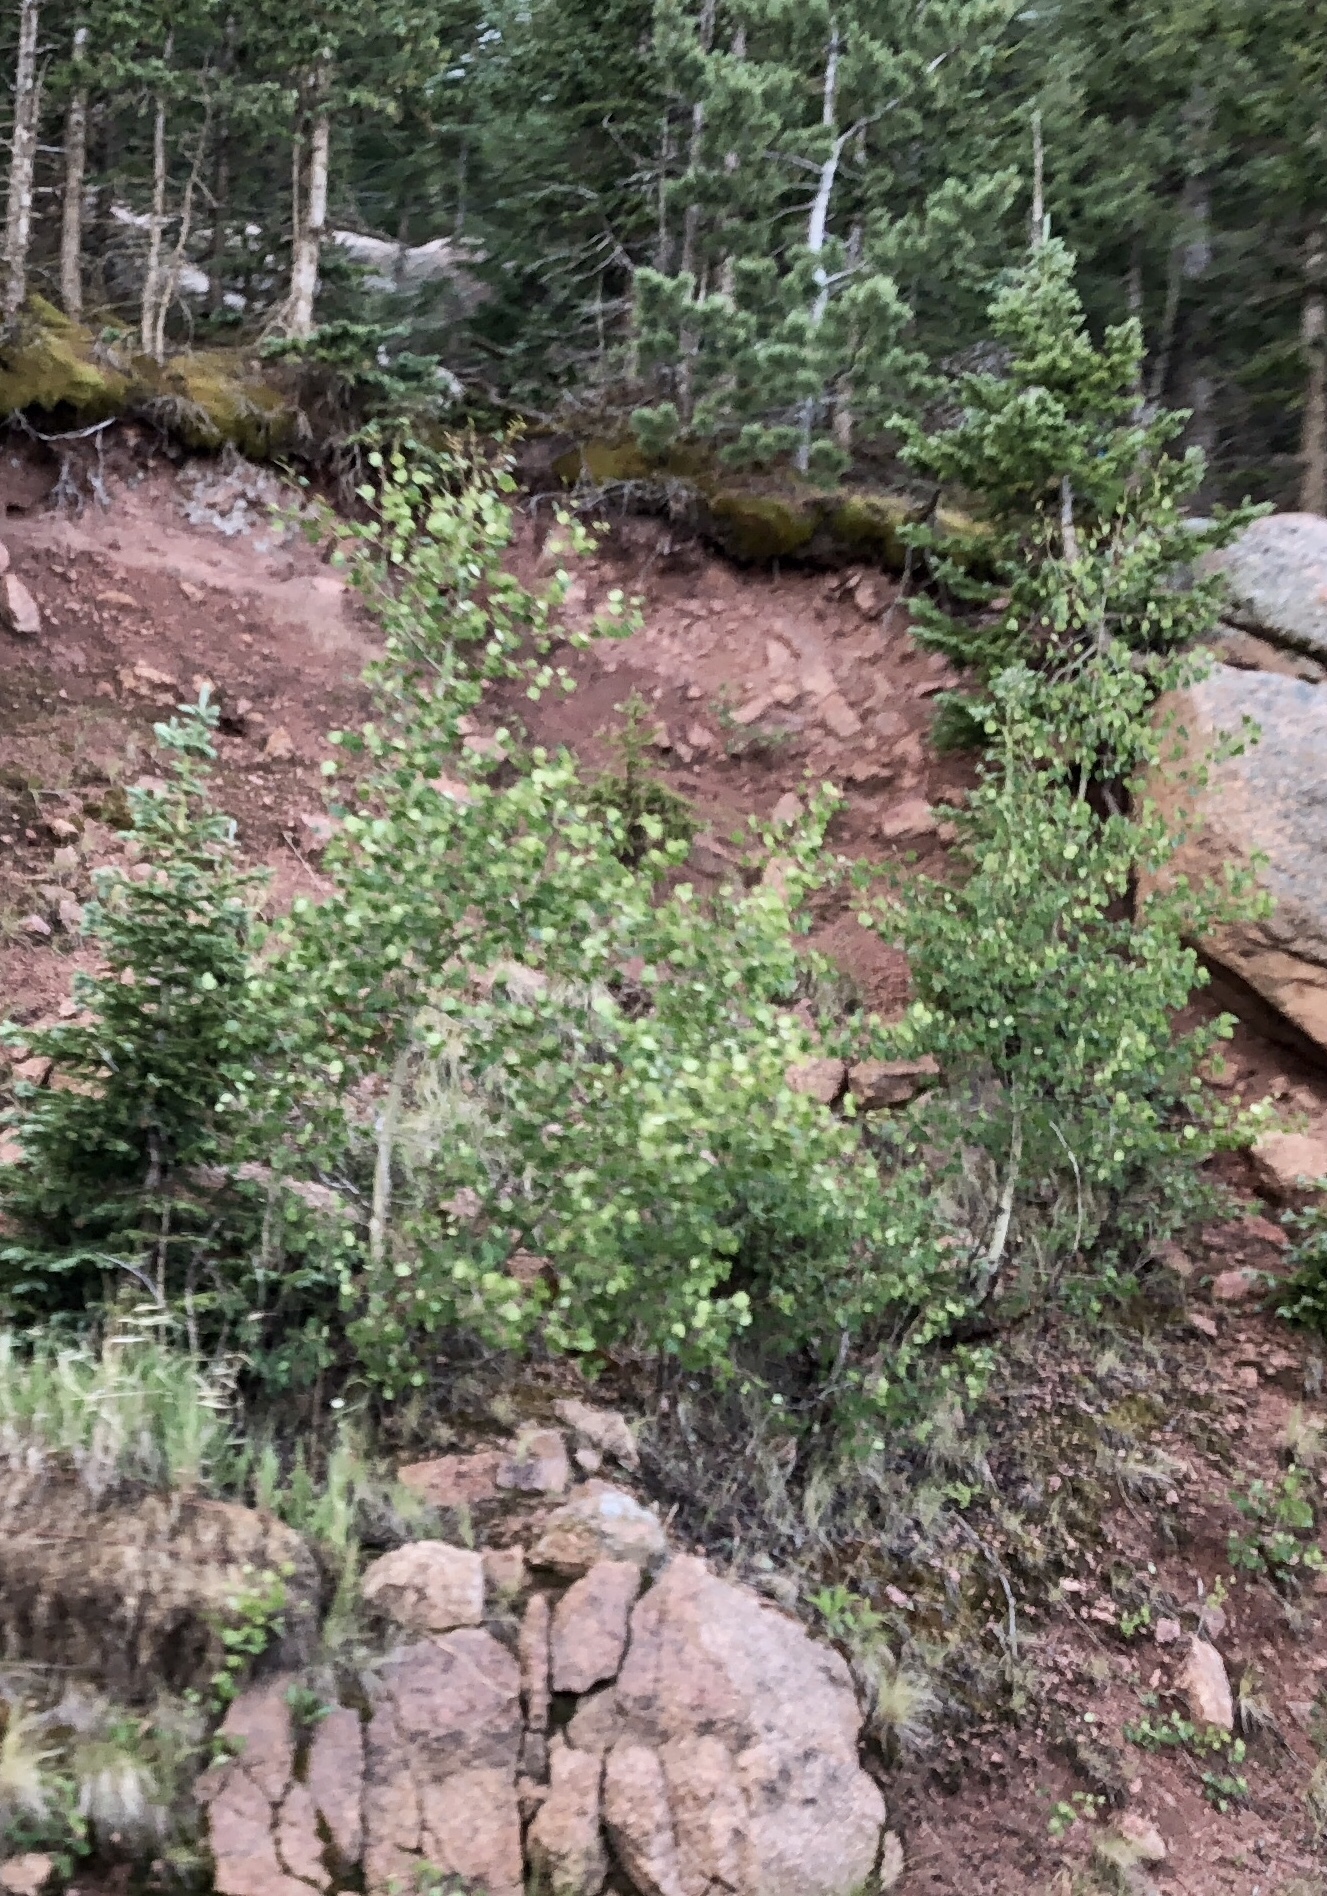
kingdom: Plantae
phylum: Tracheophyta
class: Magnoliopsida
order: Malpighiales
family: Salicaceae
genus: Populus
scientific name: Populus tremuloides
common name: Quaking aspen
